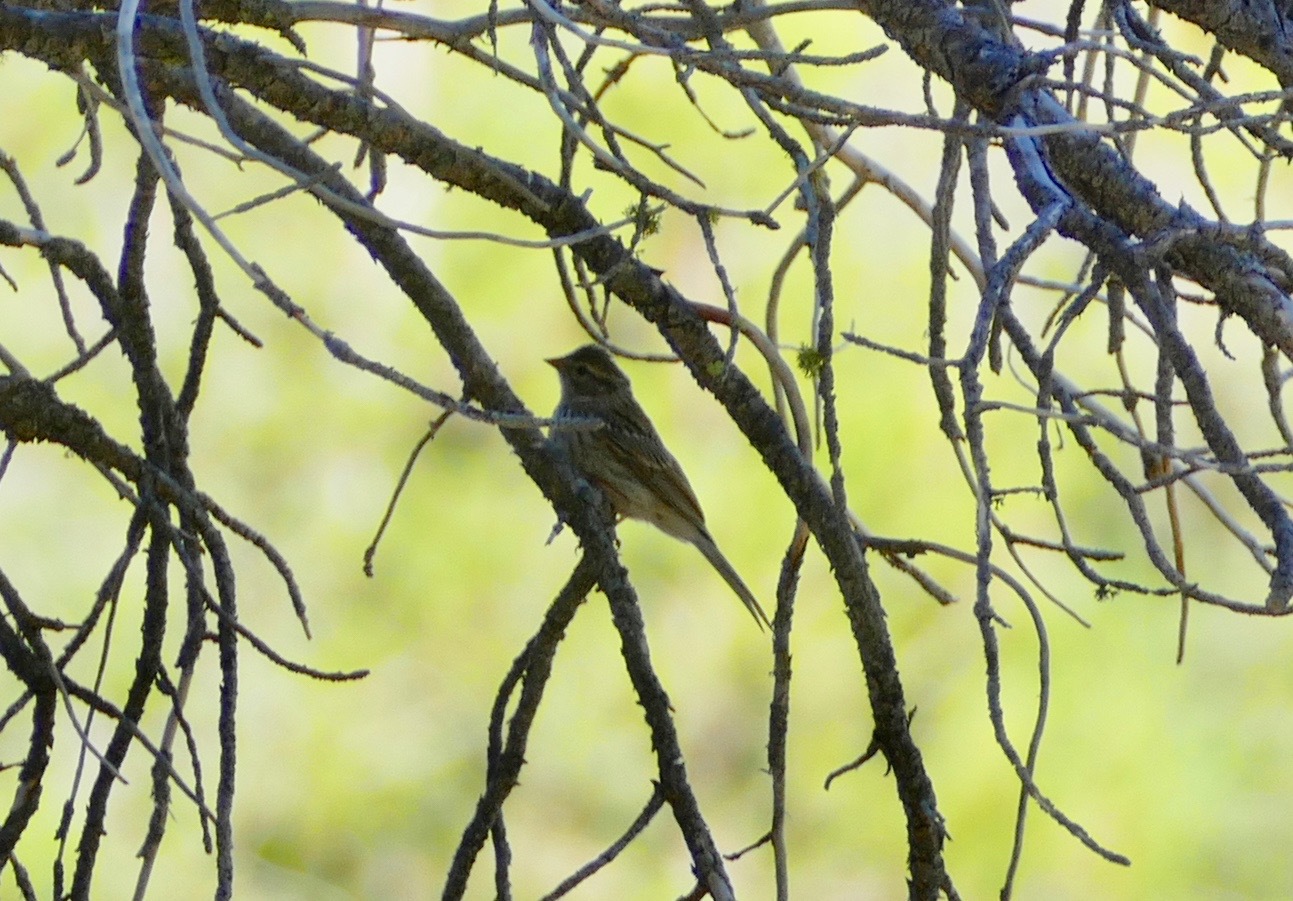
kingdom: Animalia
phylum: Chordata
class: Aves
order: Passeriformes
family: Passerellidae
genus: Spizella
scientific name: Spizella passerina
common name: Chipping sparrow
